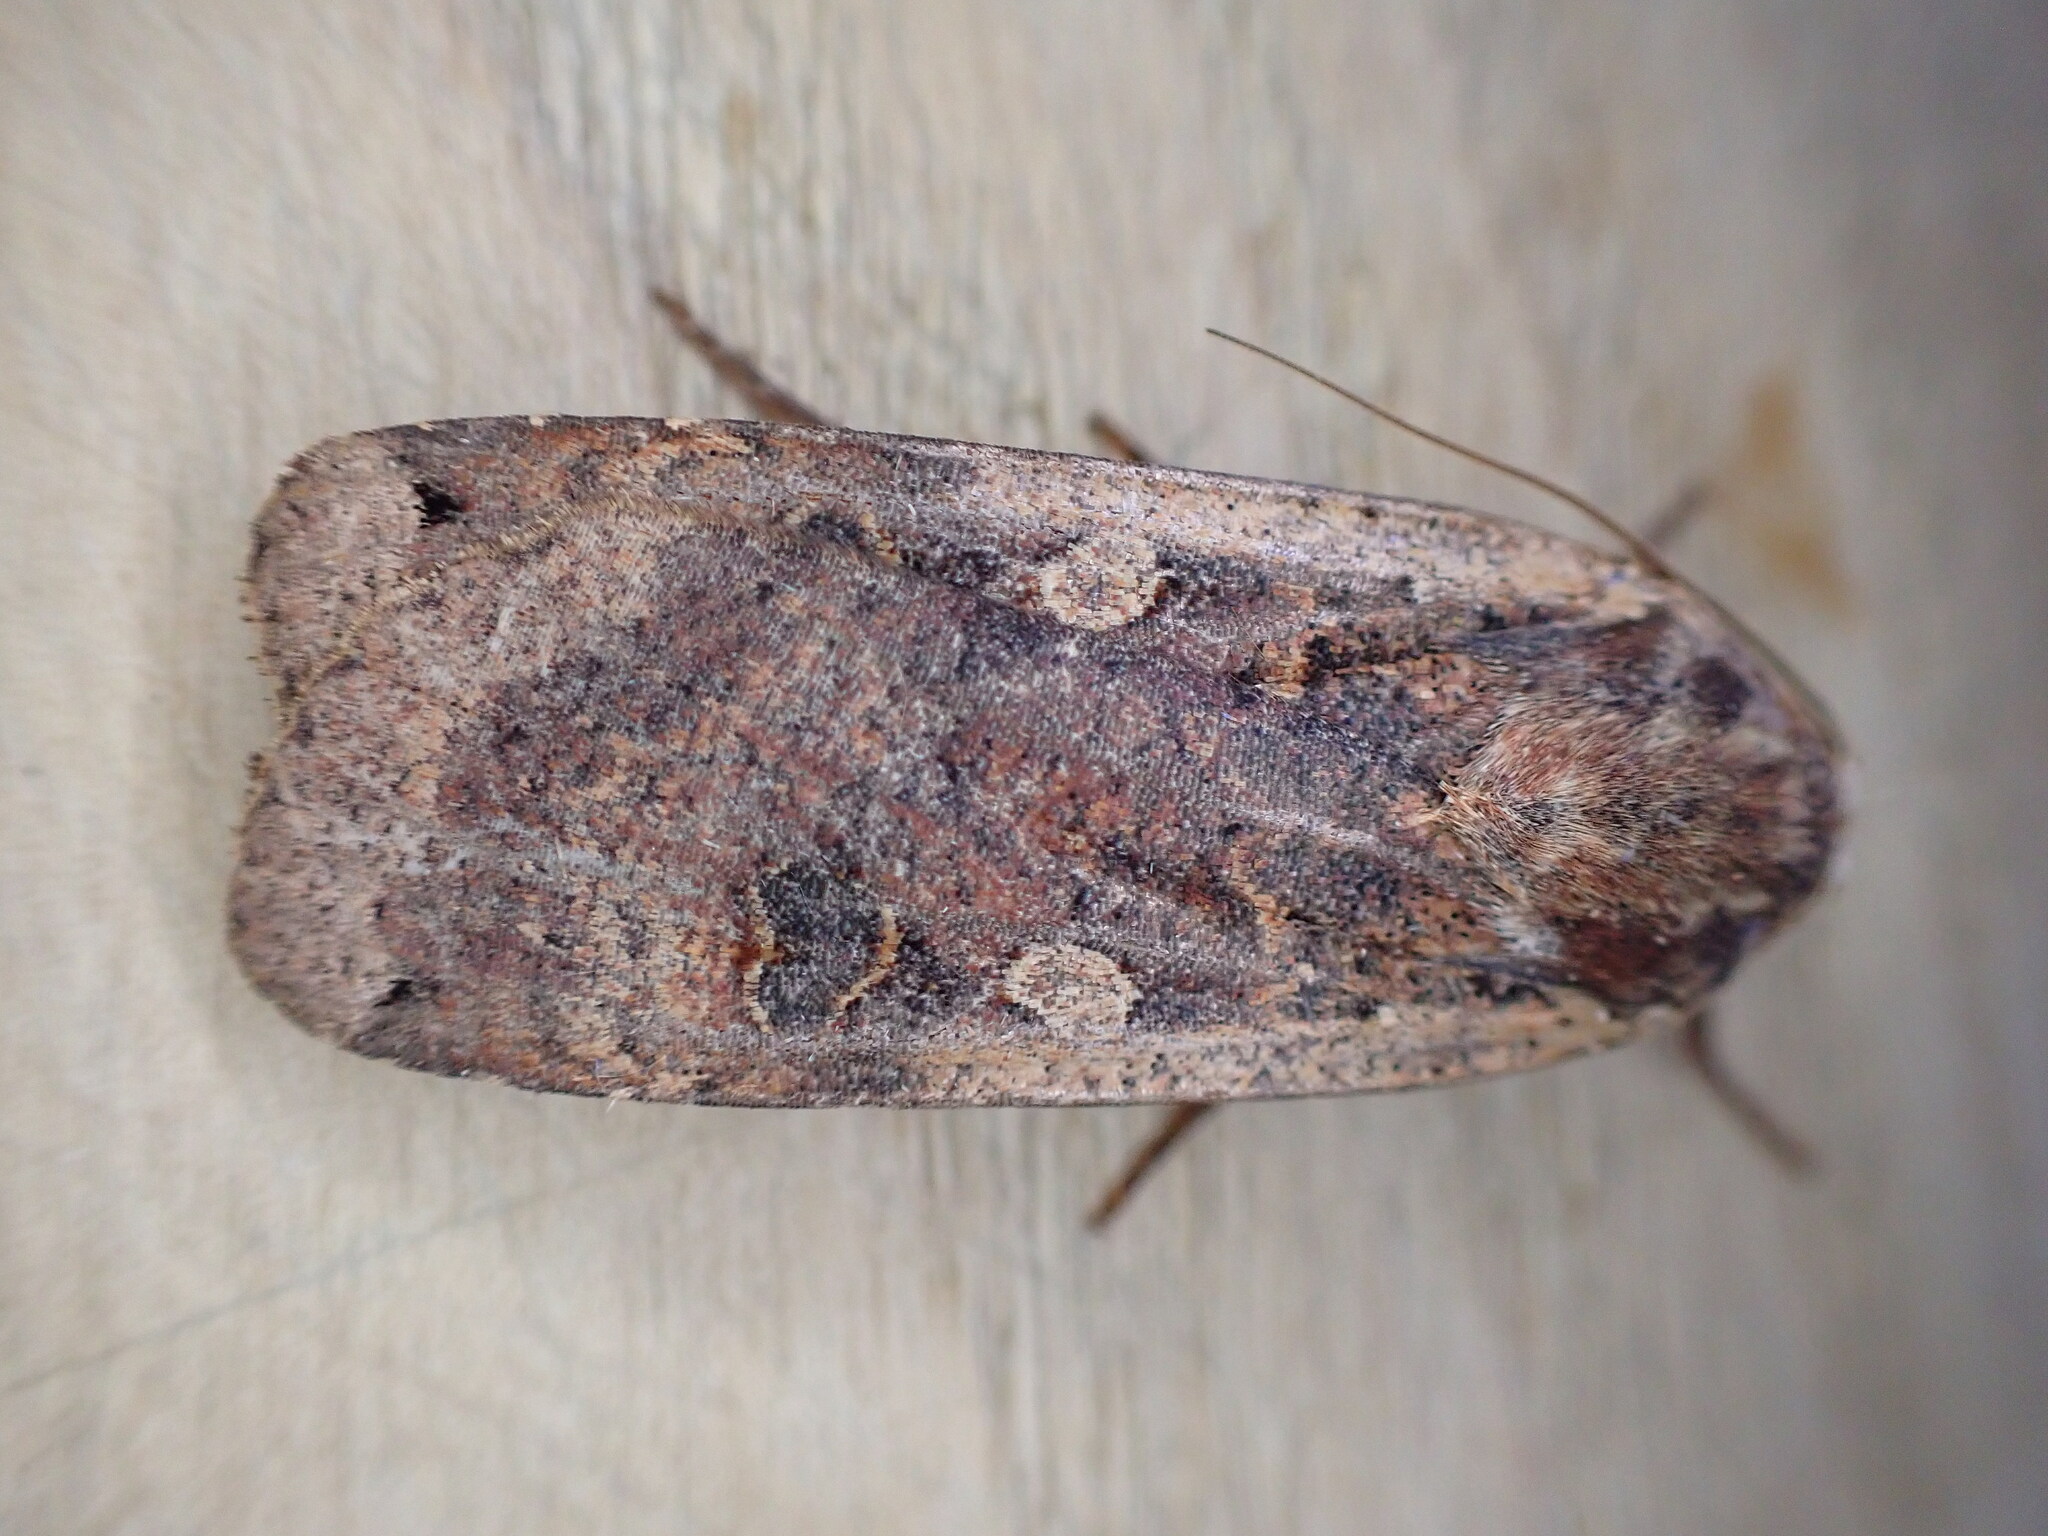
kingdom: Animalia
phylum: Arthropoda
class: Insecta
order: Lepidoptera
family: Noctuidae
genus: Noctua
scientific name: Noctua pronuba
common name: Large yellow underwing
